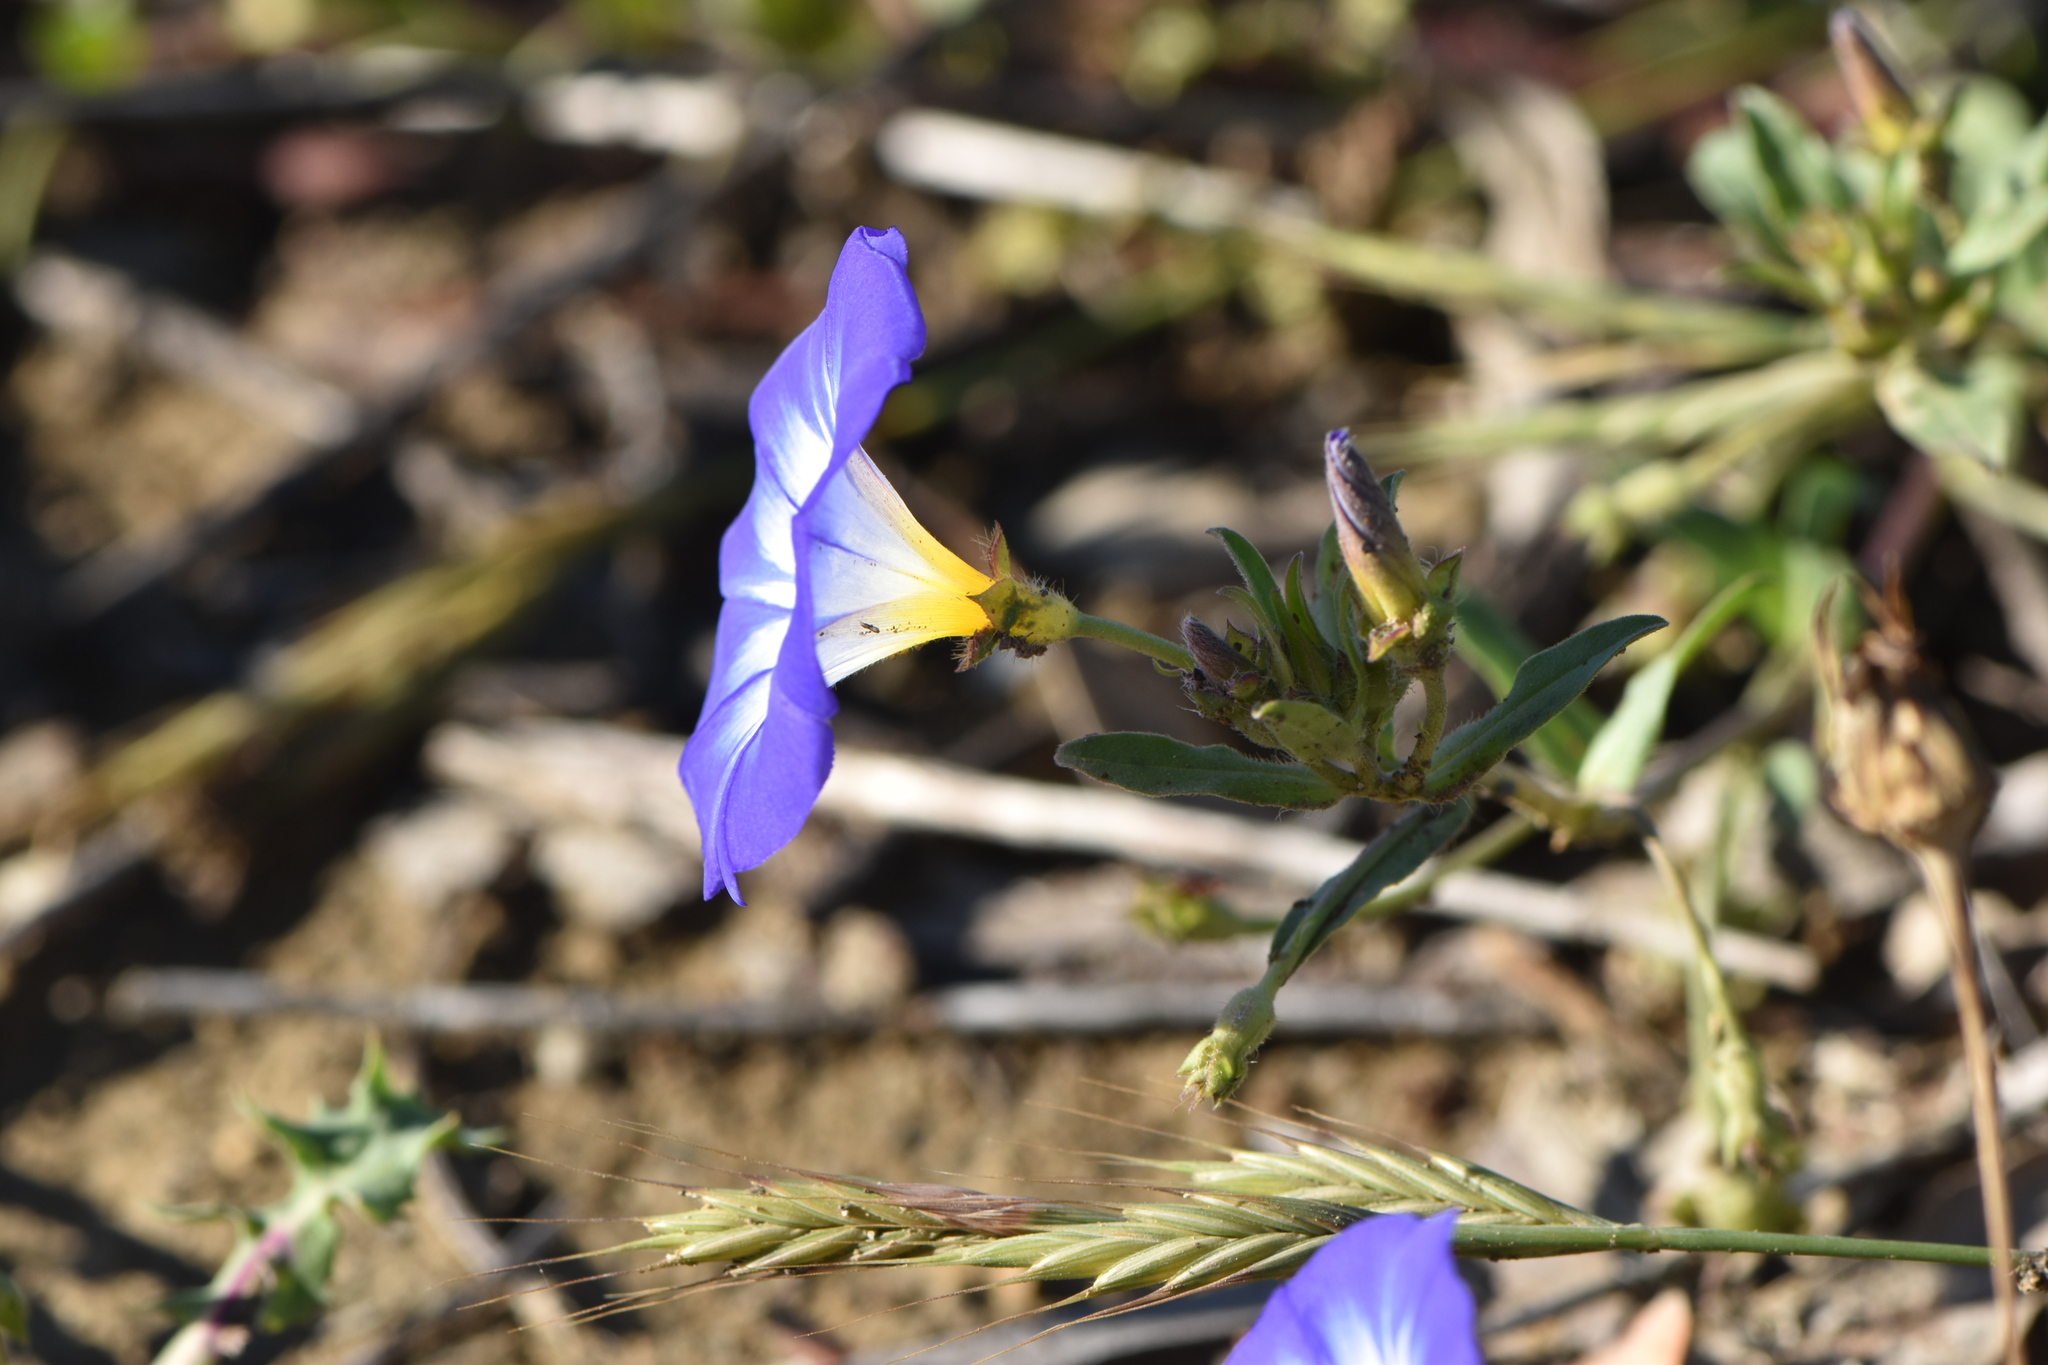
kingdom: Plantae
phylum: Tracheophyta
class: Magnoliopsida
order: Solanales
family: Convolvulaceae
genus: Convolvulus
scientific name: Convolvulus tricolor
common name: Dwarf morning-glory
